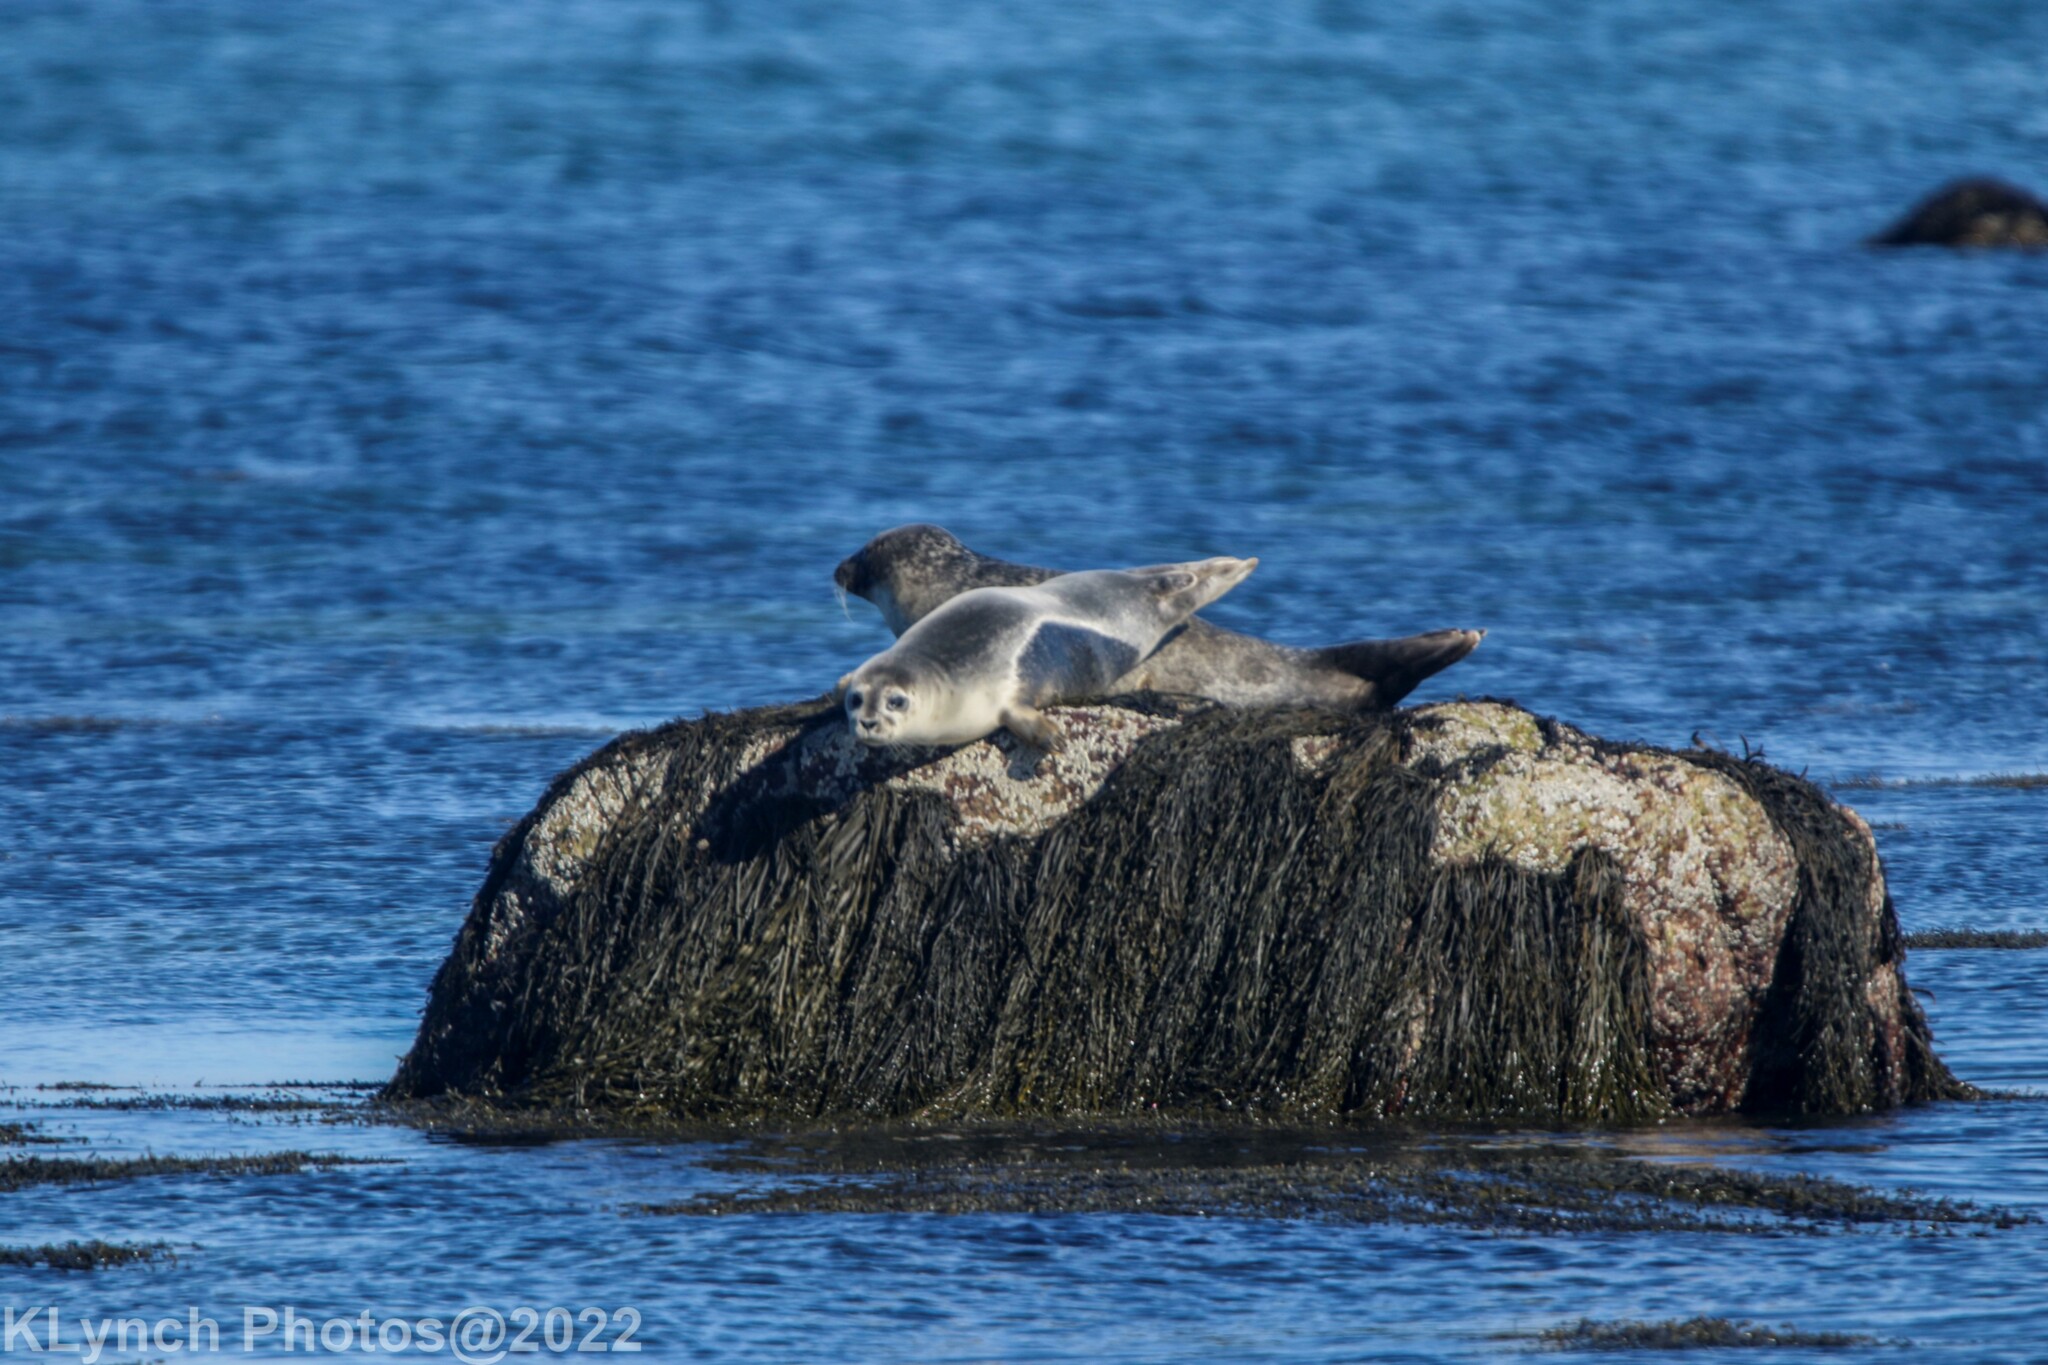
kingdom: Animalia
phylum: Chordata
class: Mammalia
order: Carnivora
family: Phocidae
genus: Phoca
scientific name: Phoca vitulina
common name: Harbor seal
